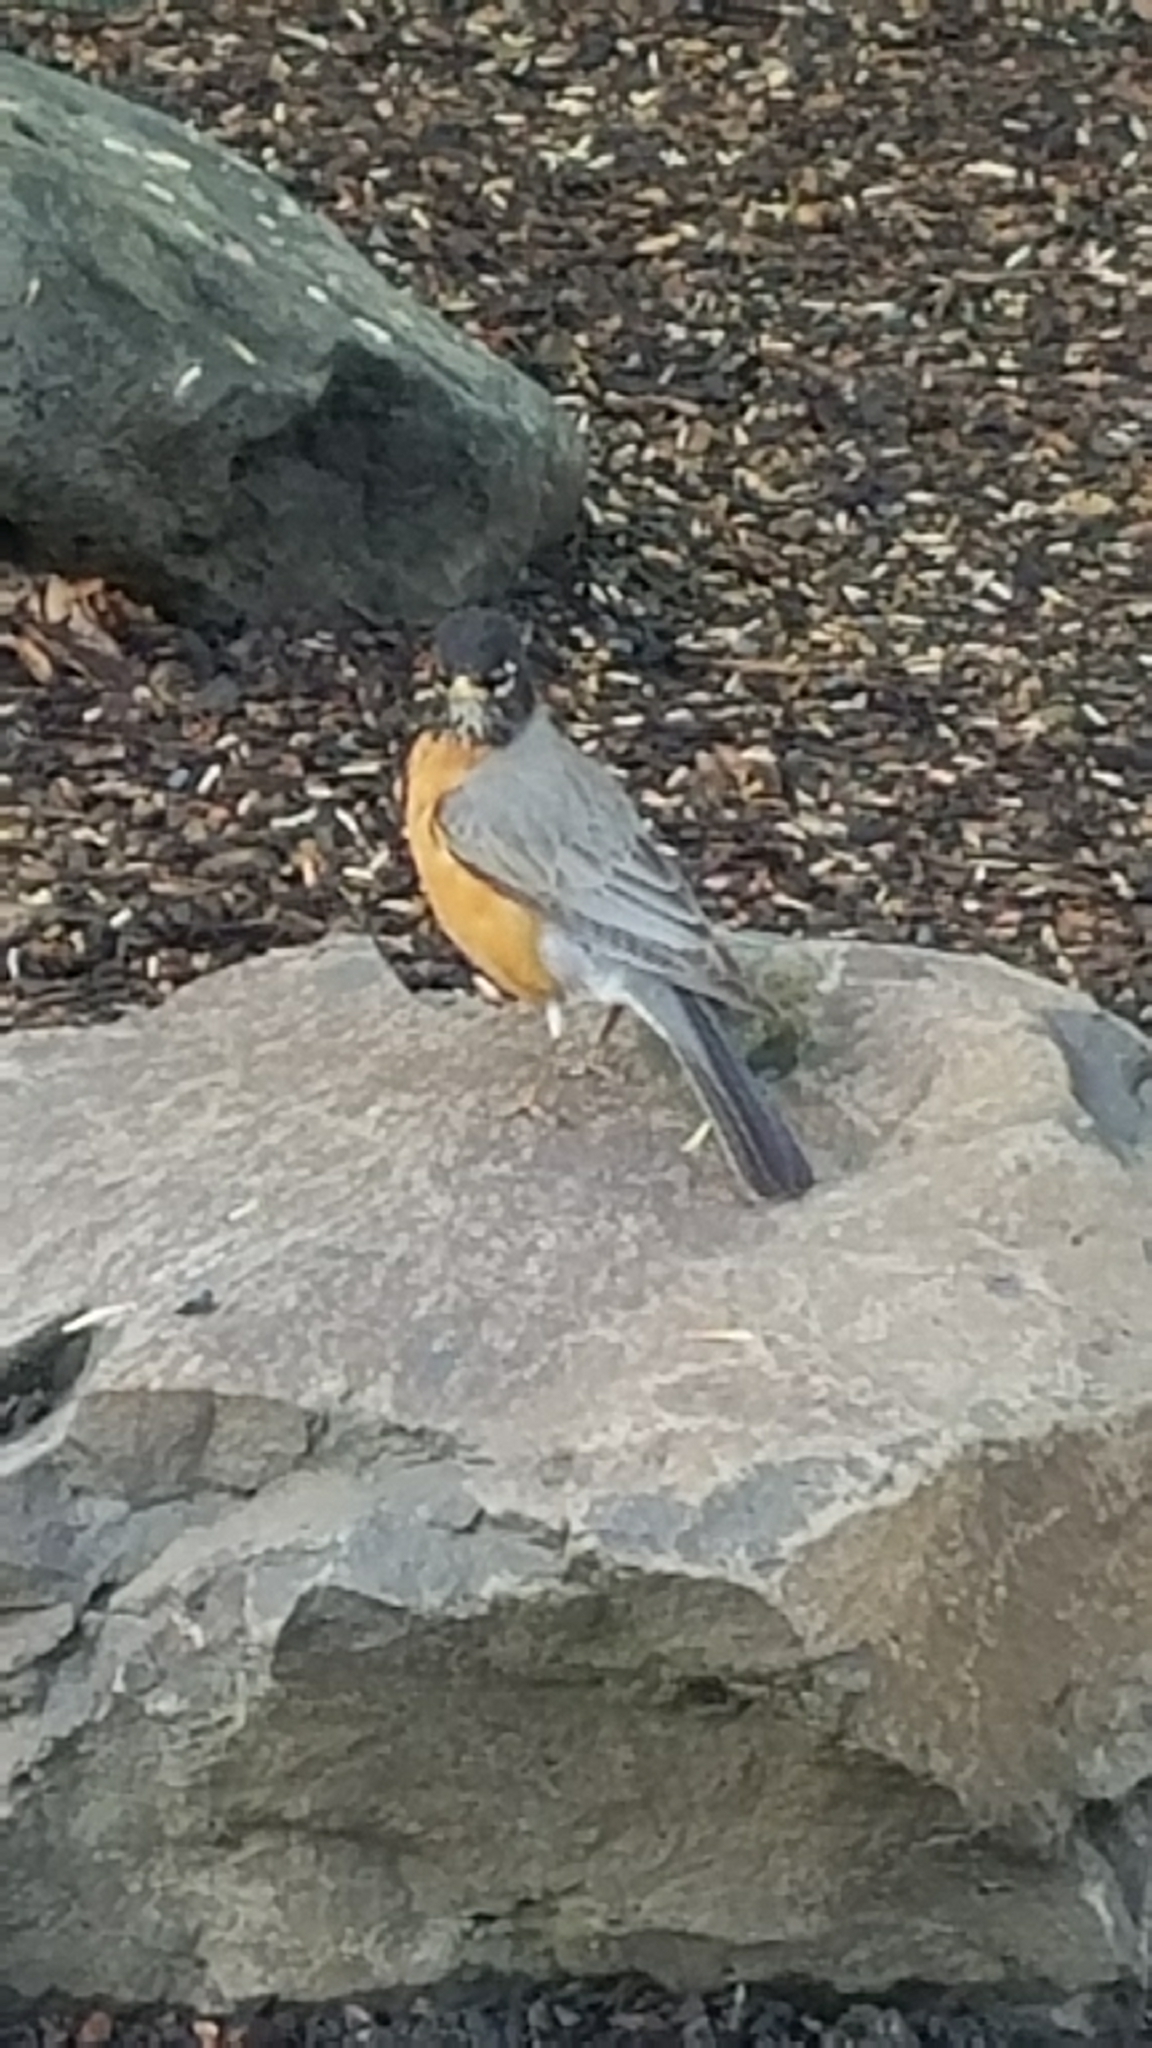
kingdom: Animalia
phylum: Chordata
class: Aves
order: Passeriformes
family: Turdidae
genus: Turdus
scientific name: Turdus migratorius
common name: American robin
